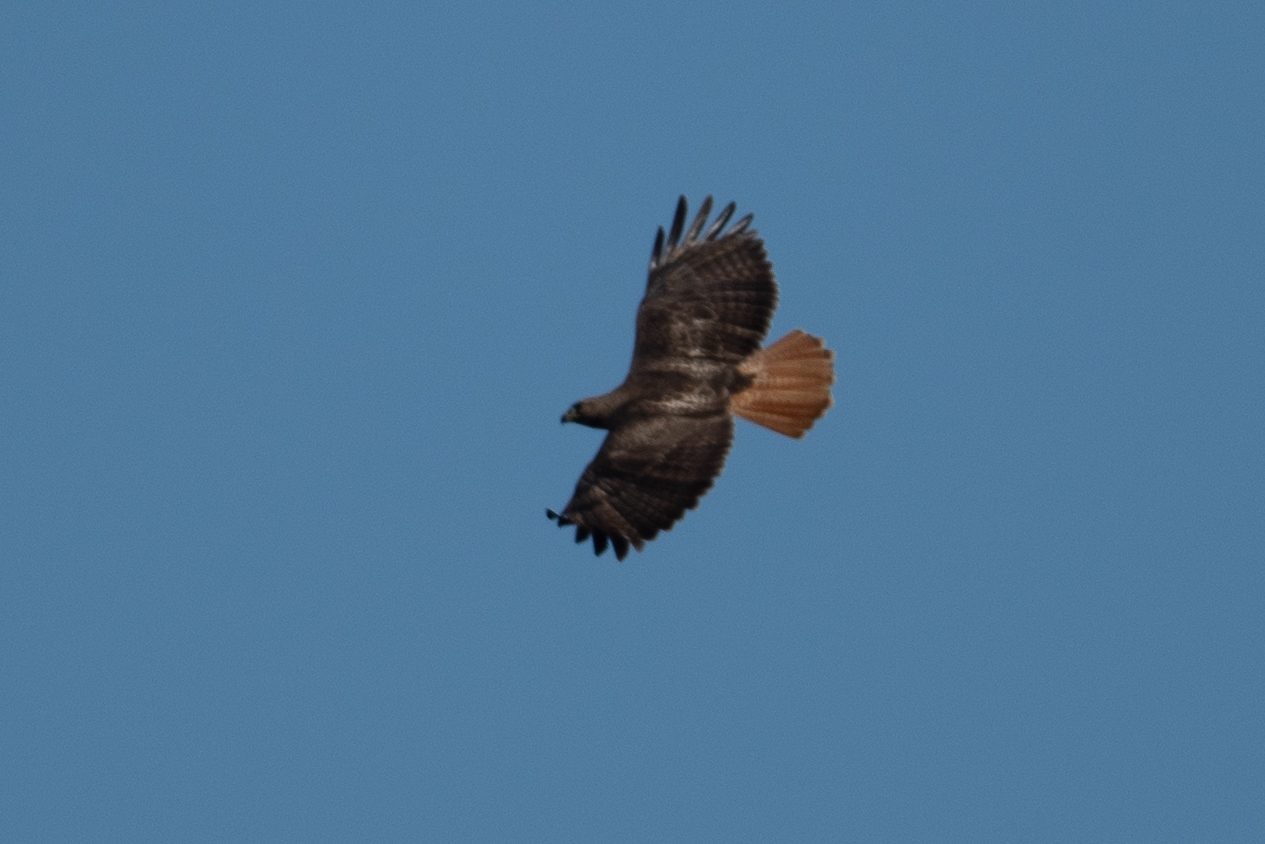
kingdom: Animalia
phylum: Chordata
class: Aves
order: Accipitriformes
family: Accipitridae
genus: Buteo
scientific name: Buteo jamaicensis
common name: Red-tailed hawk
